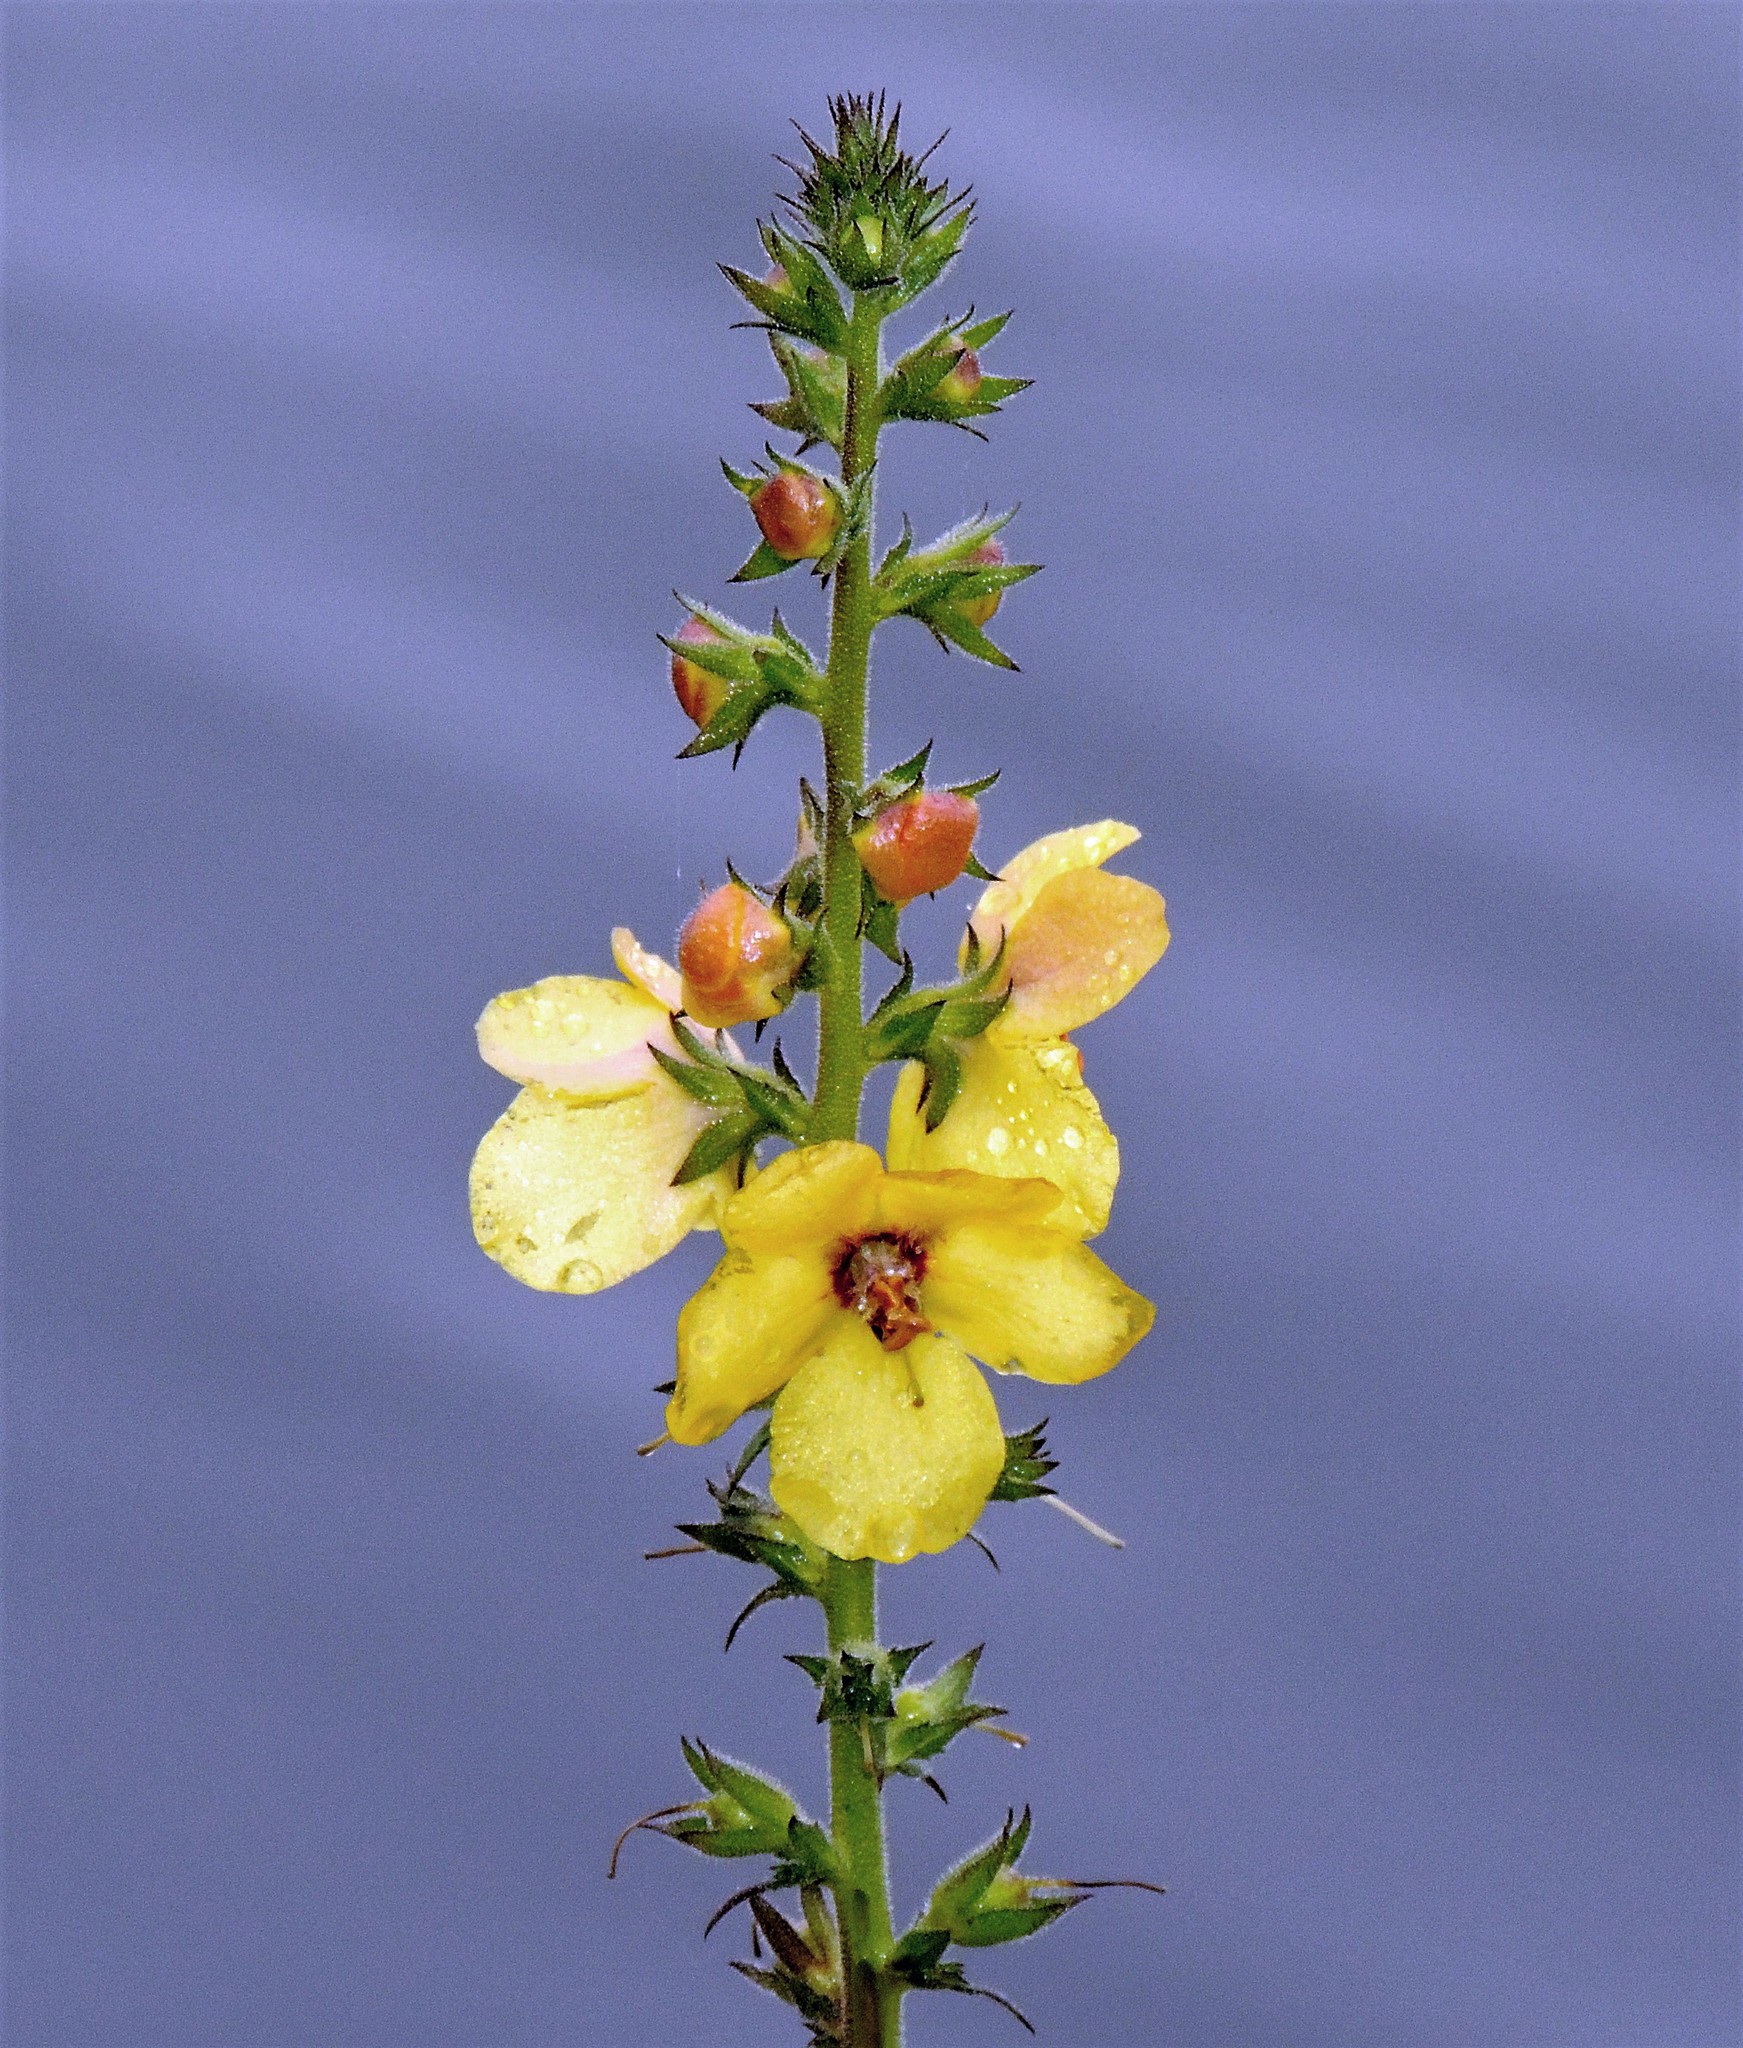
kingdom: Plantae
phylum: Tracheophyta
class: Magnoliopsida
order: Lamiales
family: Scrophulariaceae
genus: Verbascum
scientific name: Verbascum virgatum
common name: Twiggy mullein
